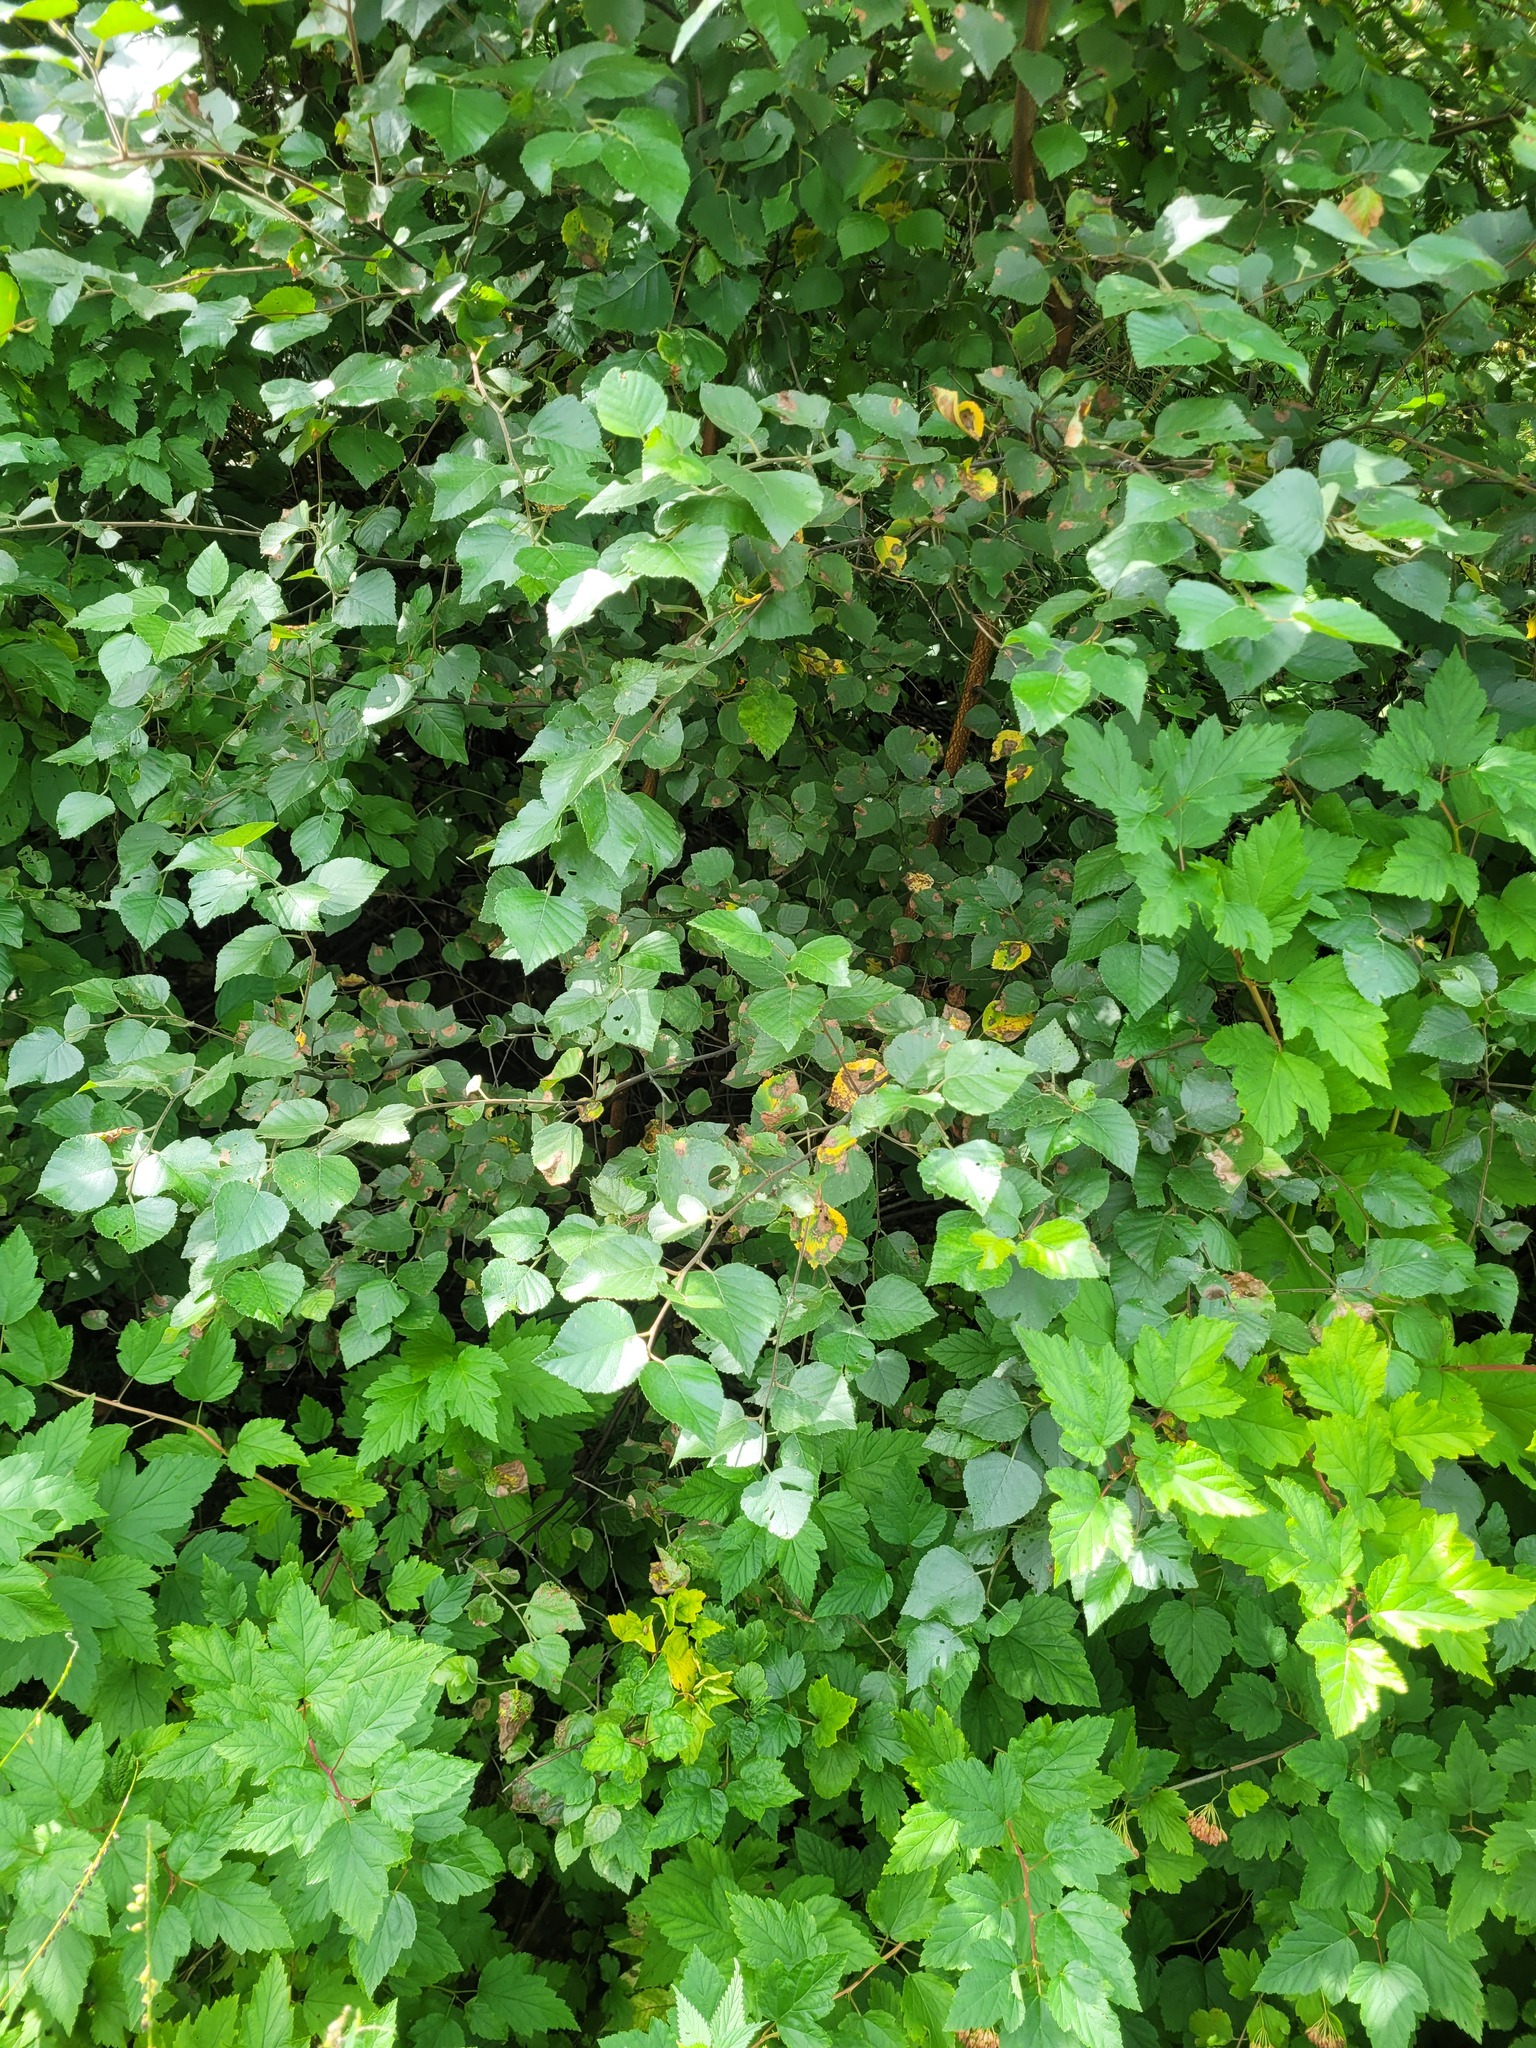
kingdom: Plantae
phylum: Tracheophyta
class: Magnoliopsida
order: Fagales
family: Betulaceae
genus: Betula
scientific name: Betula pubescens
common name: Downy birch
